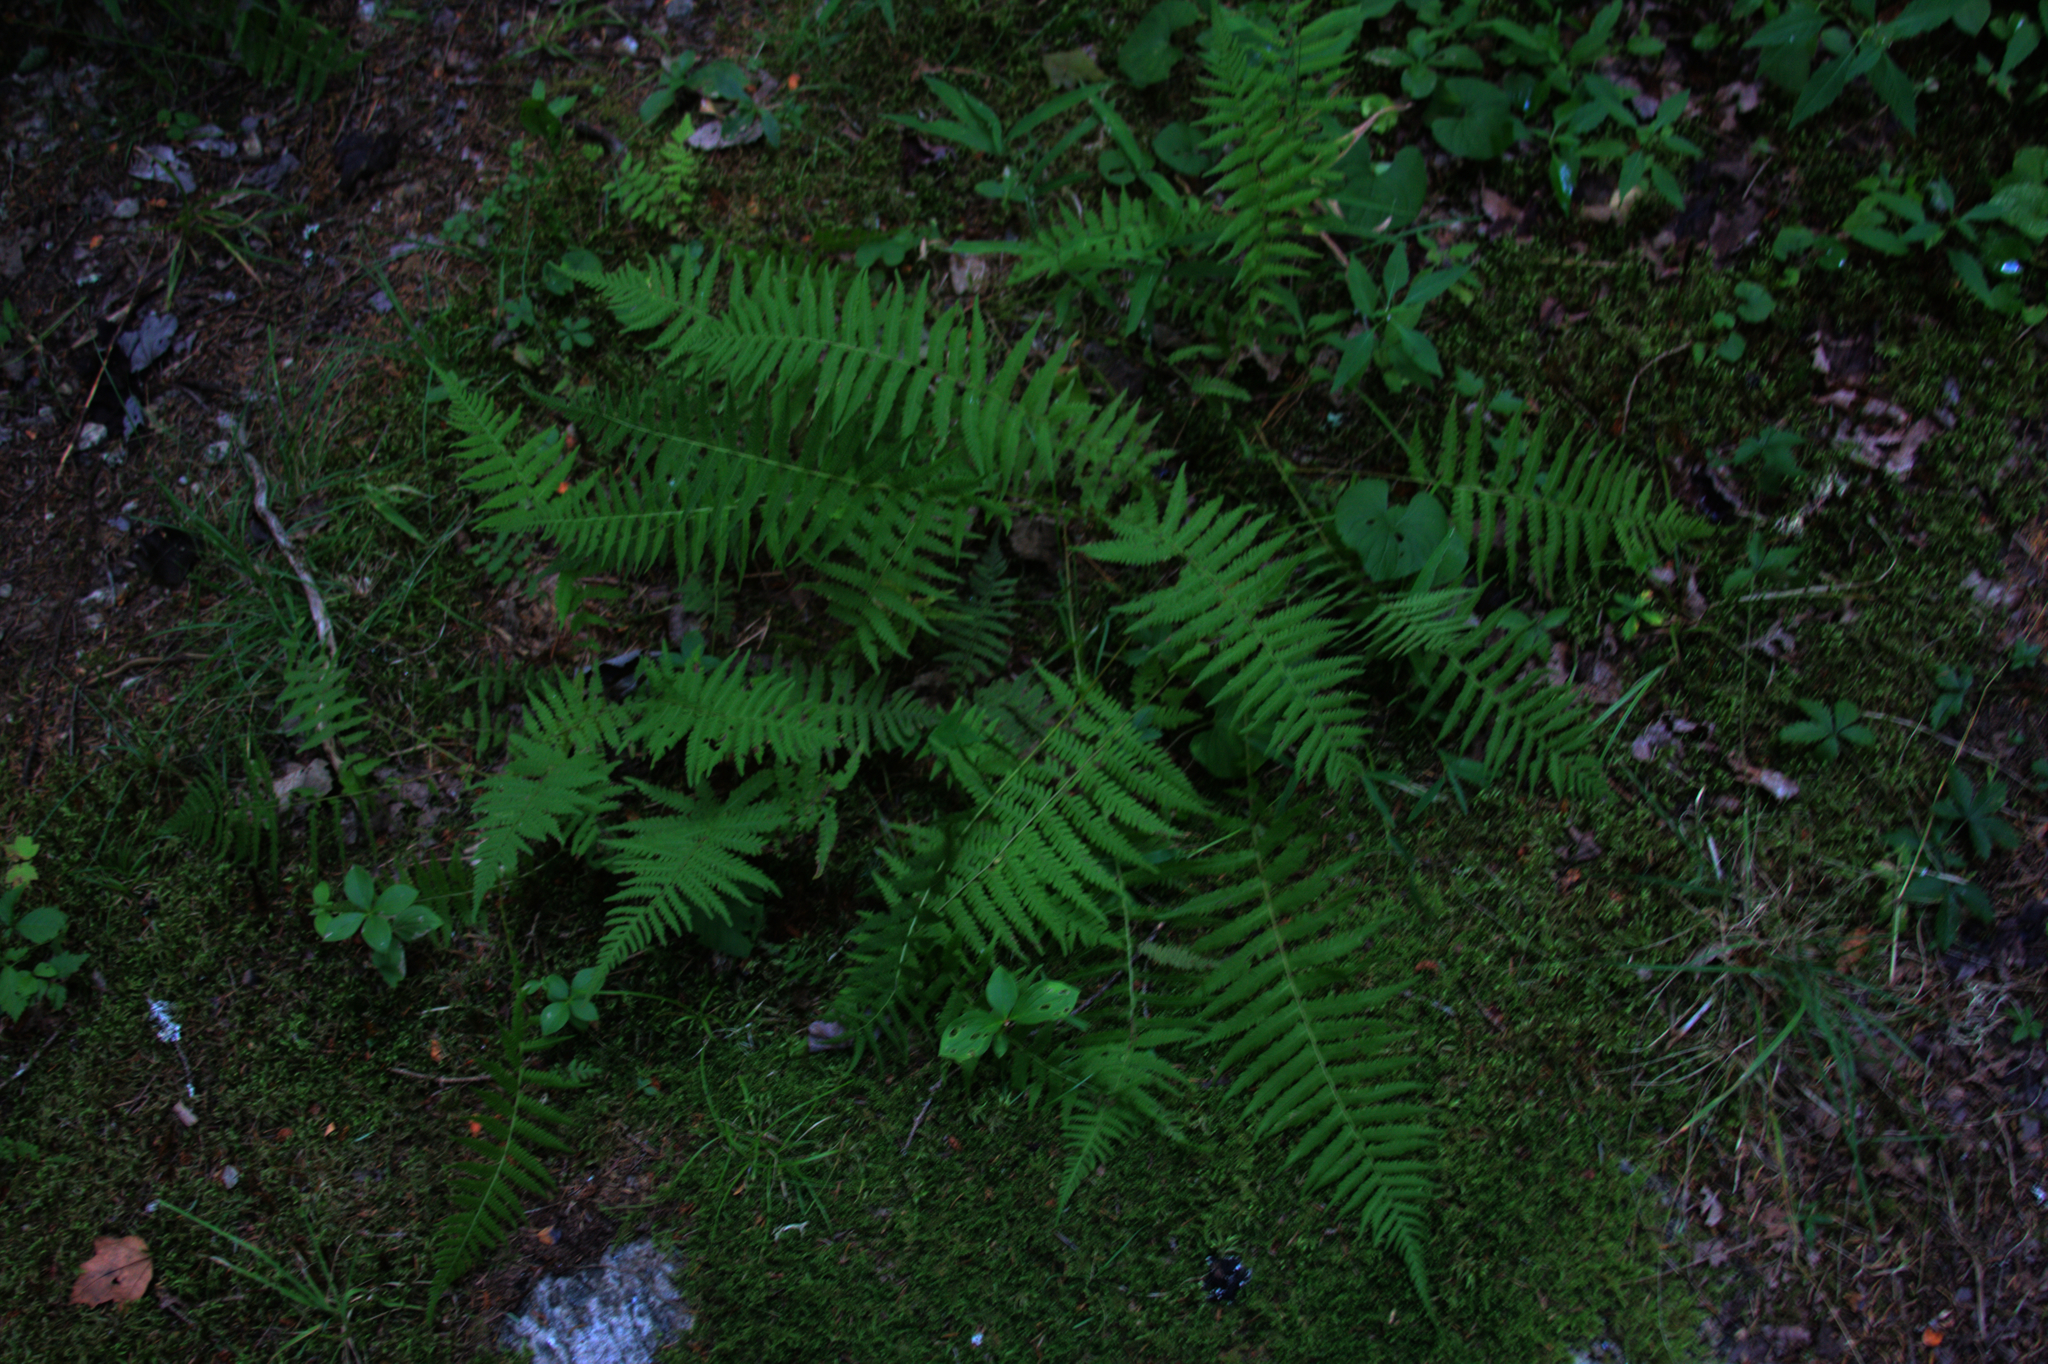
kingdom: Plantae
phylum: Tracheophyta
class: Polypodiopsida
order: Polypodiales
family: Thelypteridaceae
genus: Amauropelta
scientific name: Amauropelta noveboracensis
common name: New york fern
